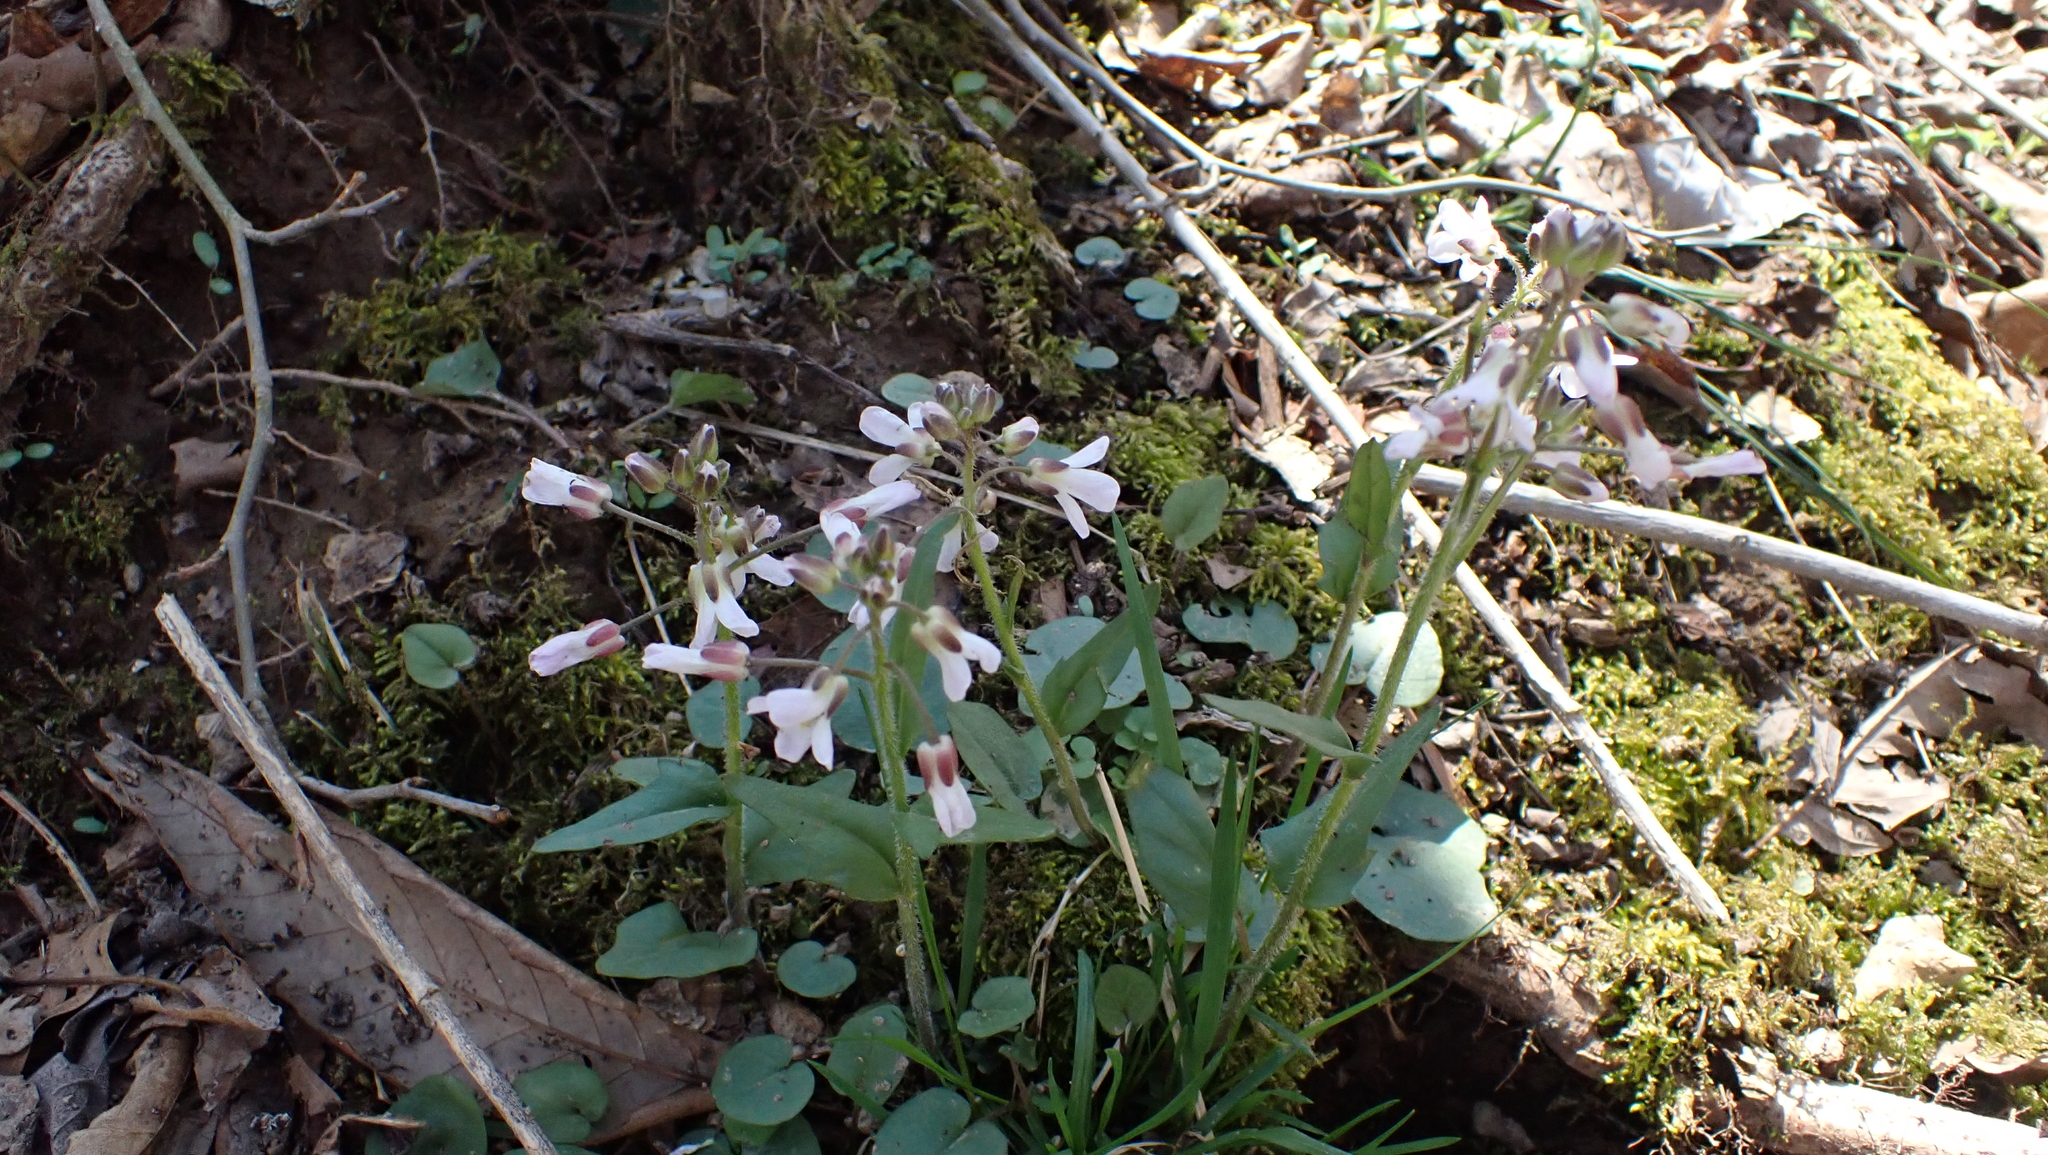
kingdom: Plantae
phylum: Tracheophyta
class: Magnoliopsida
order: Brassicales
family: Brassicaceae
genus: Cardamine
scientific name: Cardamine douglassii
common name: Purple cress
